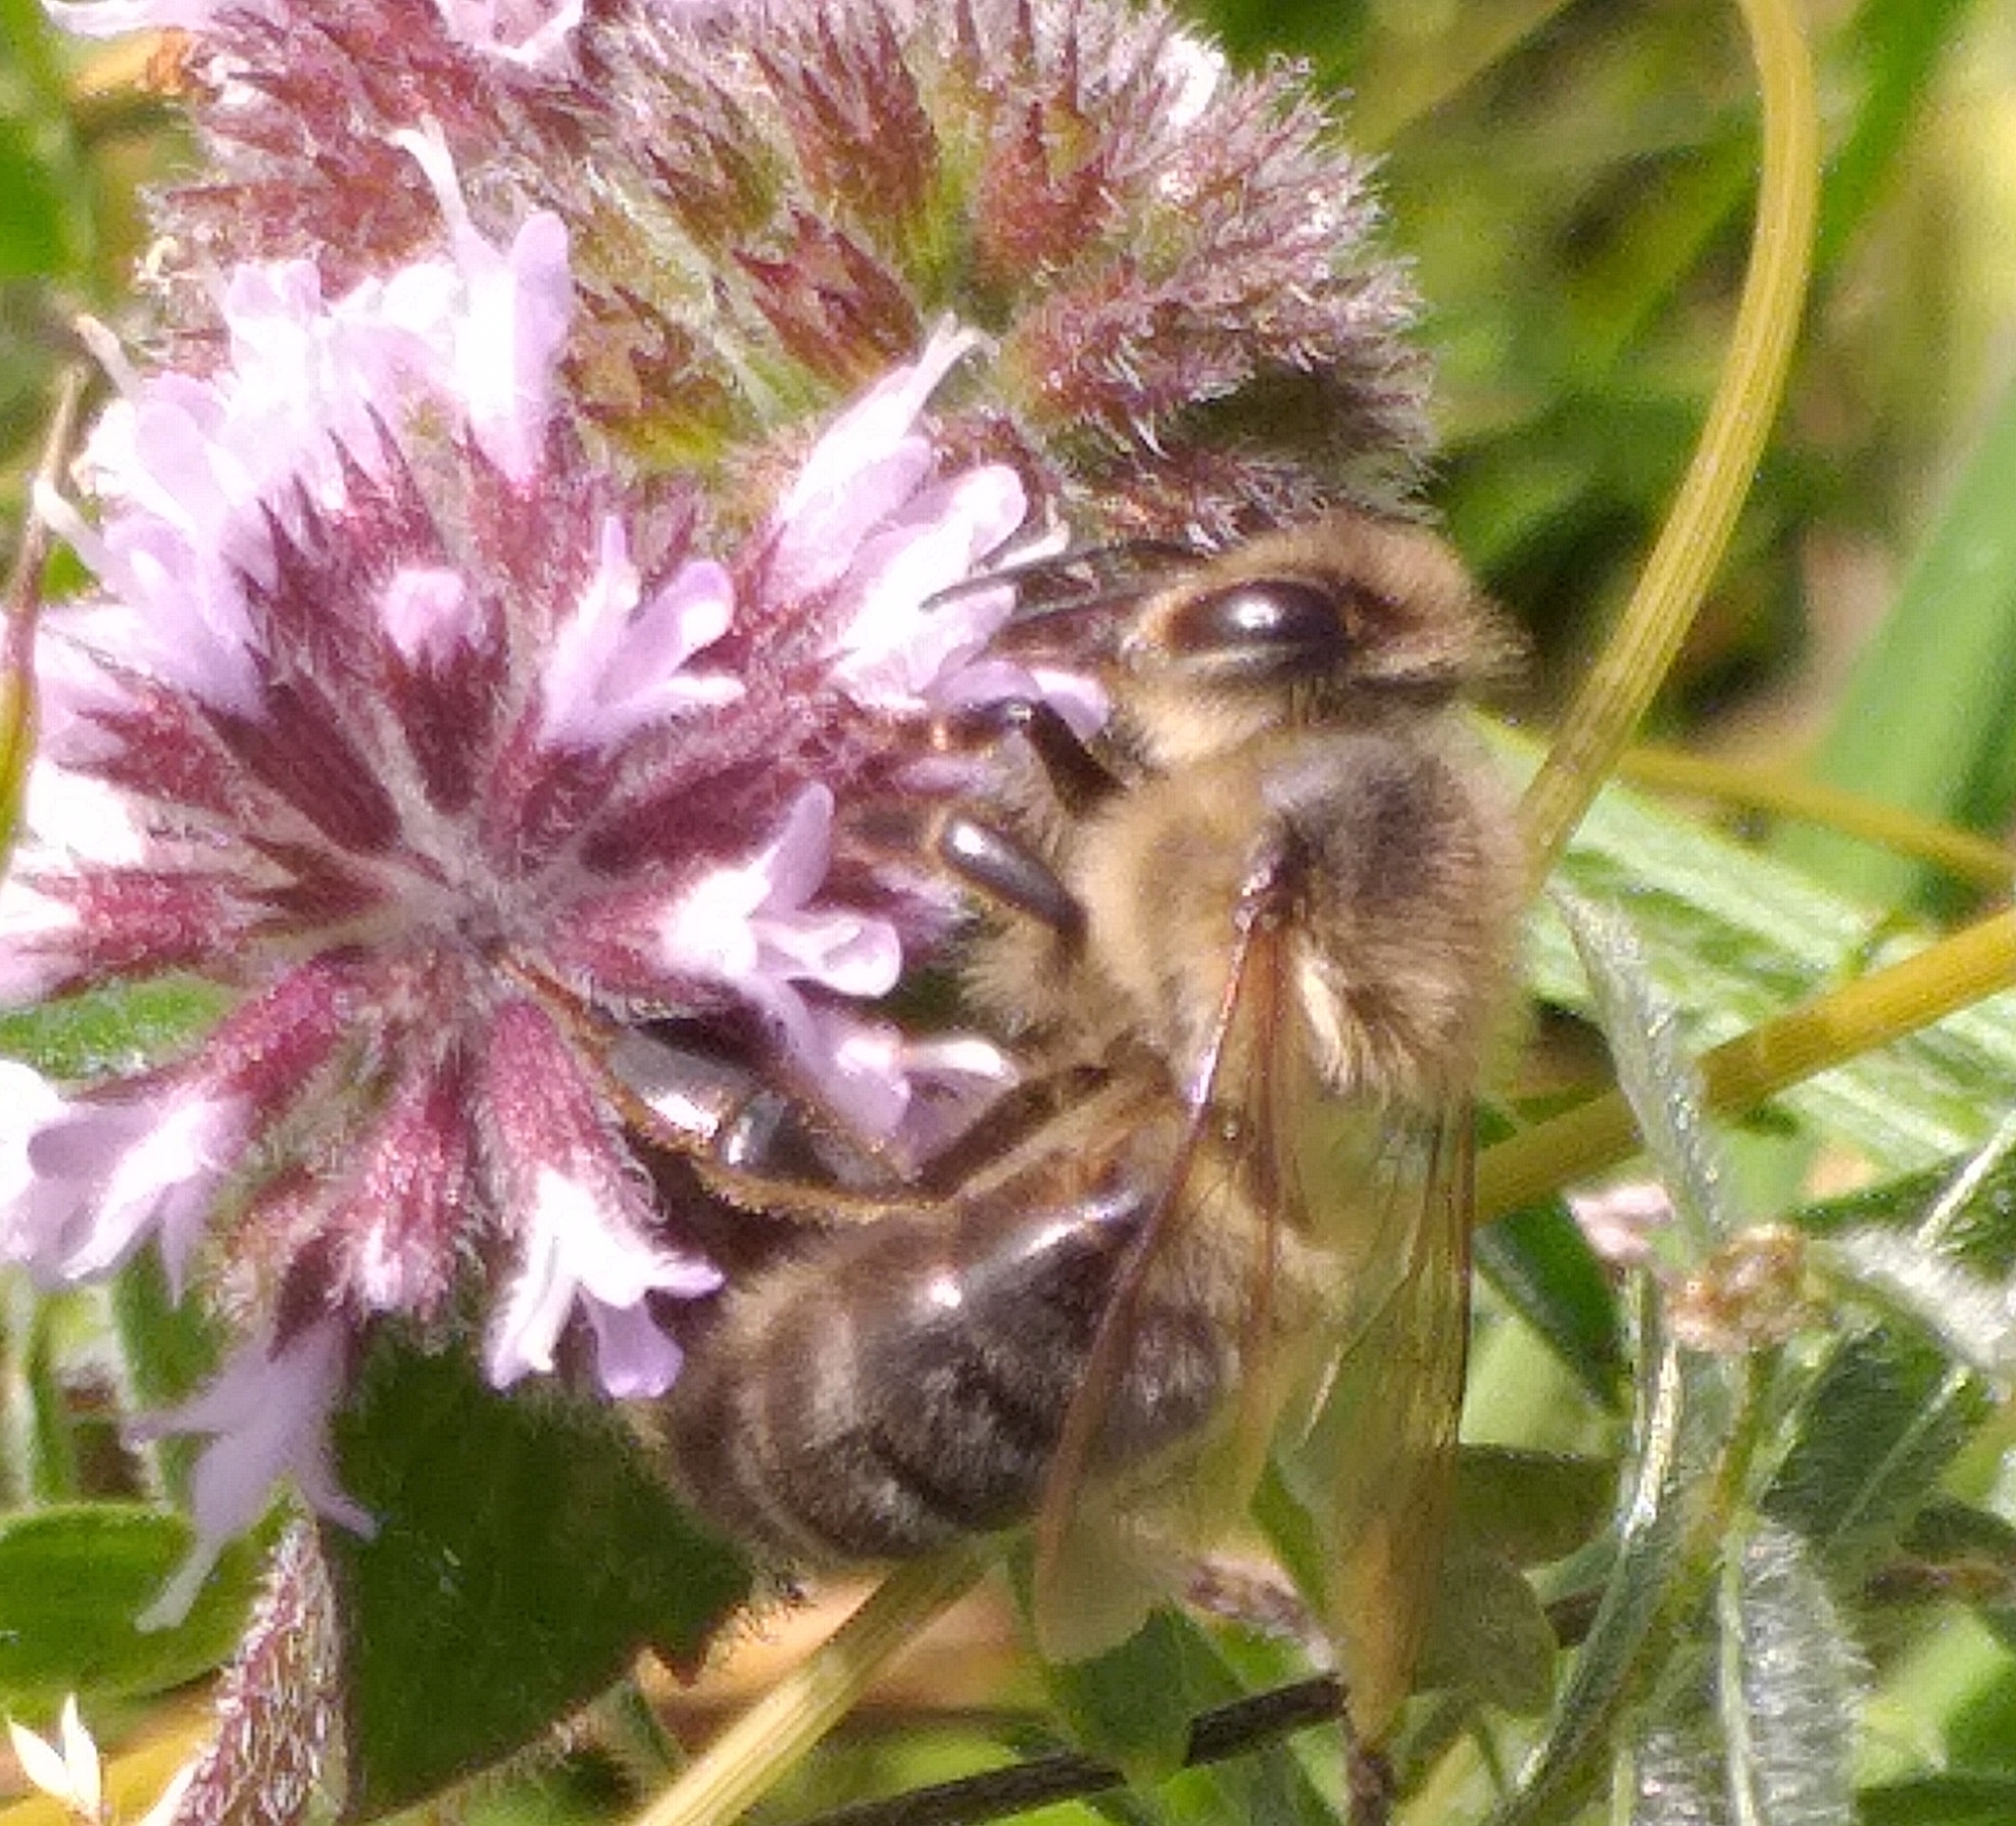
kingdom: Animalia
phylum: Arthropoda
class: Insecta
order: Hymenoptera
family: Apidae
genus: Apis
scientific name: Apis mellifera
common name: Honey bee
